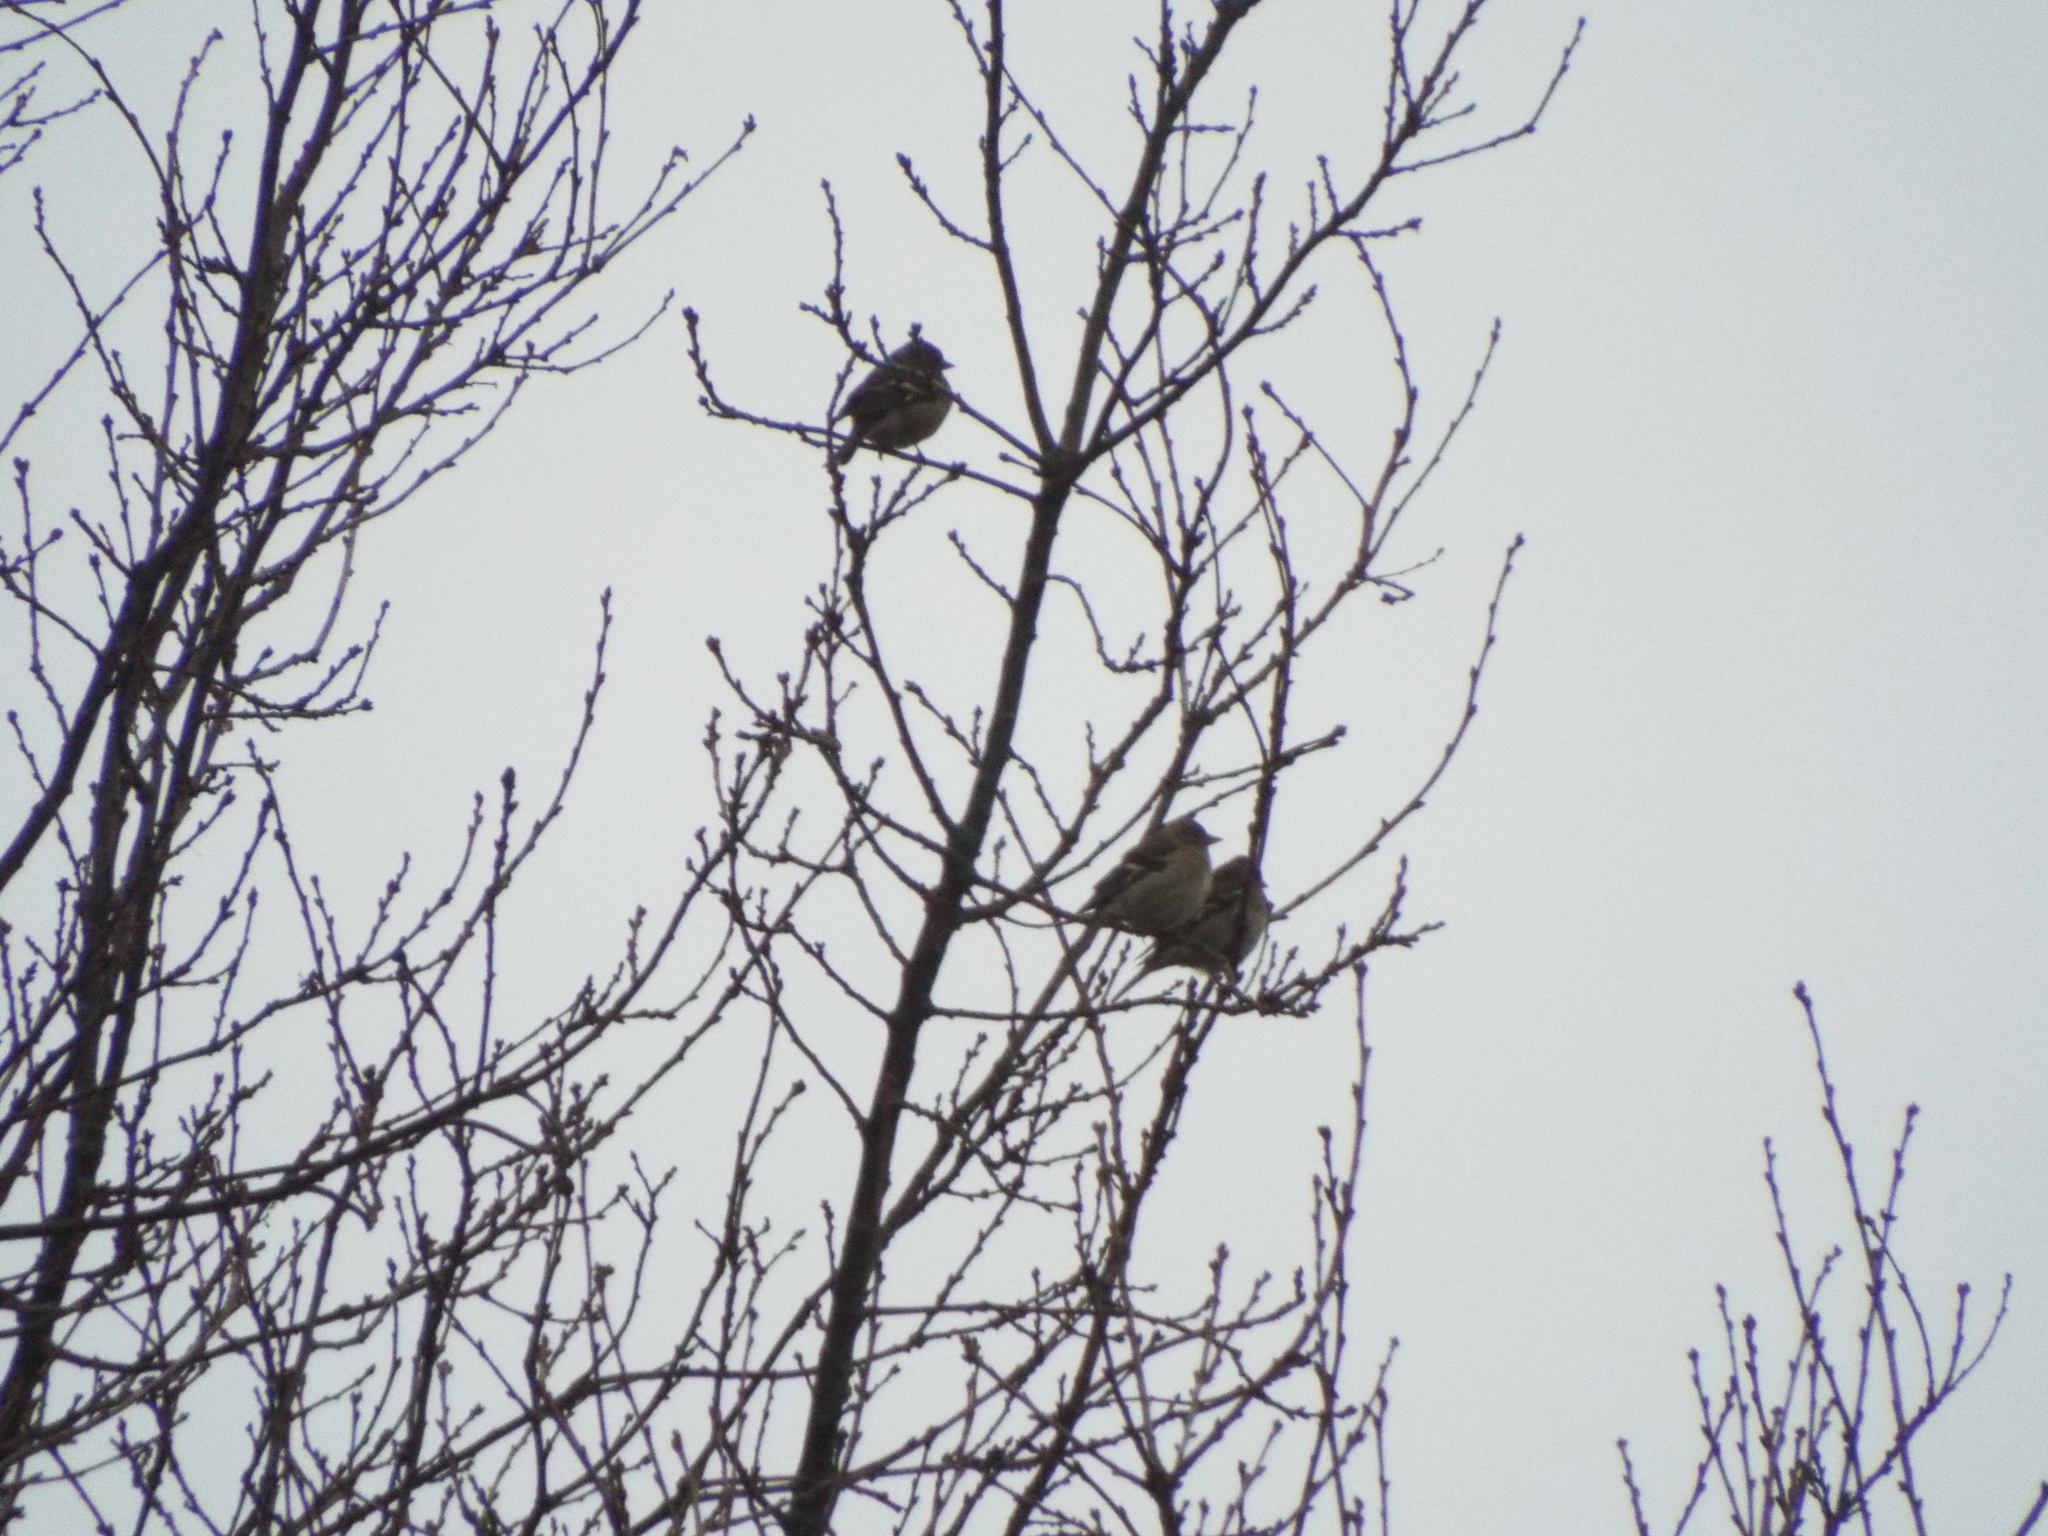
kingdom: Animalia
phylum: Chordata
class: Aves
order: Passeriformes
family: Fringillidae
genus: Fringilla
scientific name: Fringilla coelebs
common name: Common chaffinch
